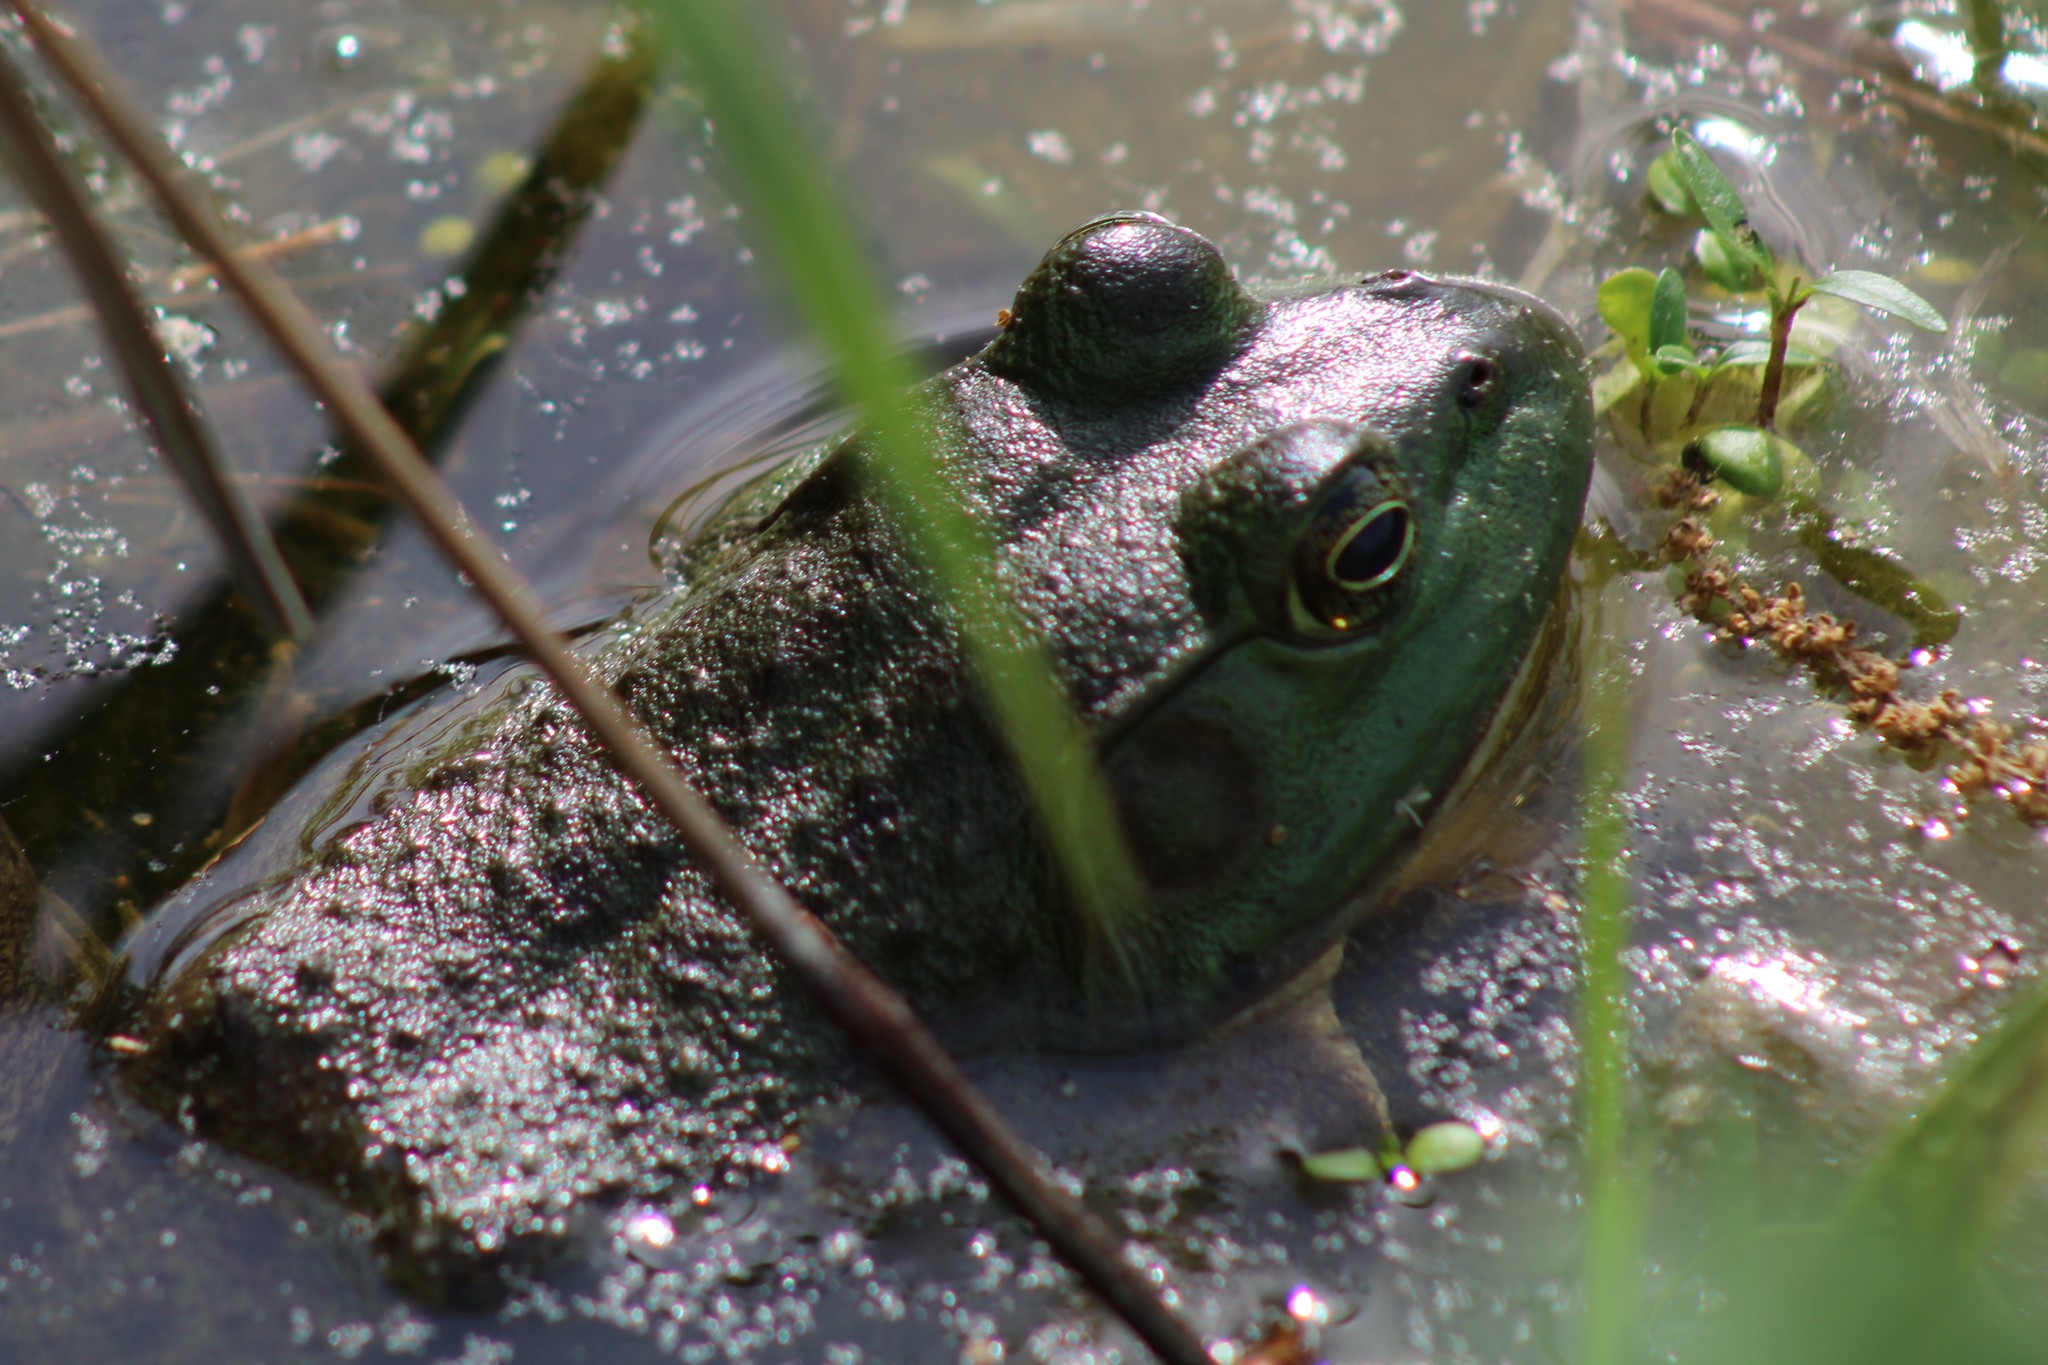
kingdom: Animalia
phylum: Chordata
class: Amphibia
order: Anura
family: Ranidae
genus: Lithobates
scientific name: Lithobates catesbeianus
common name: American bullfrog
